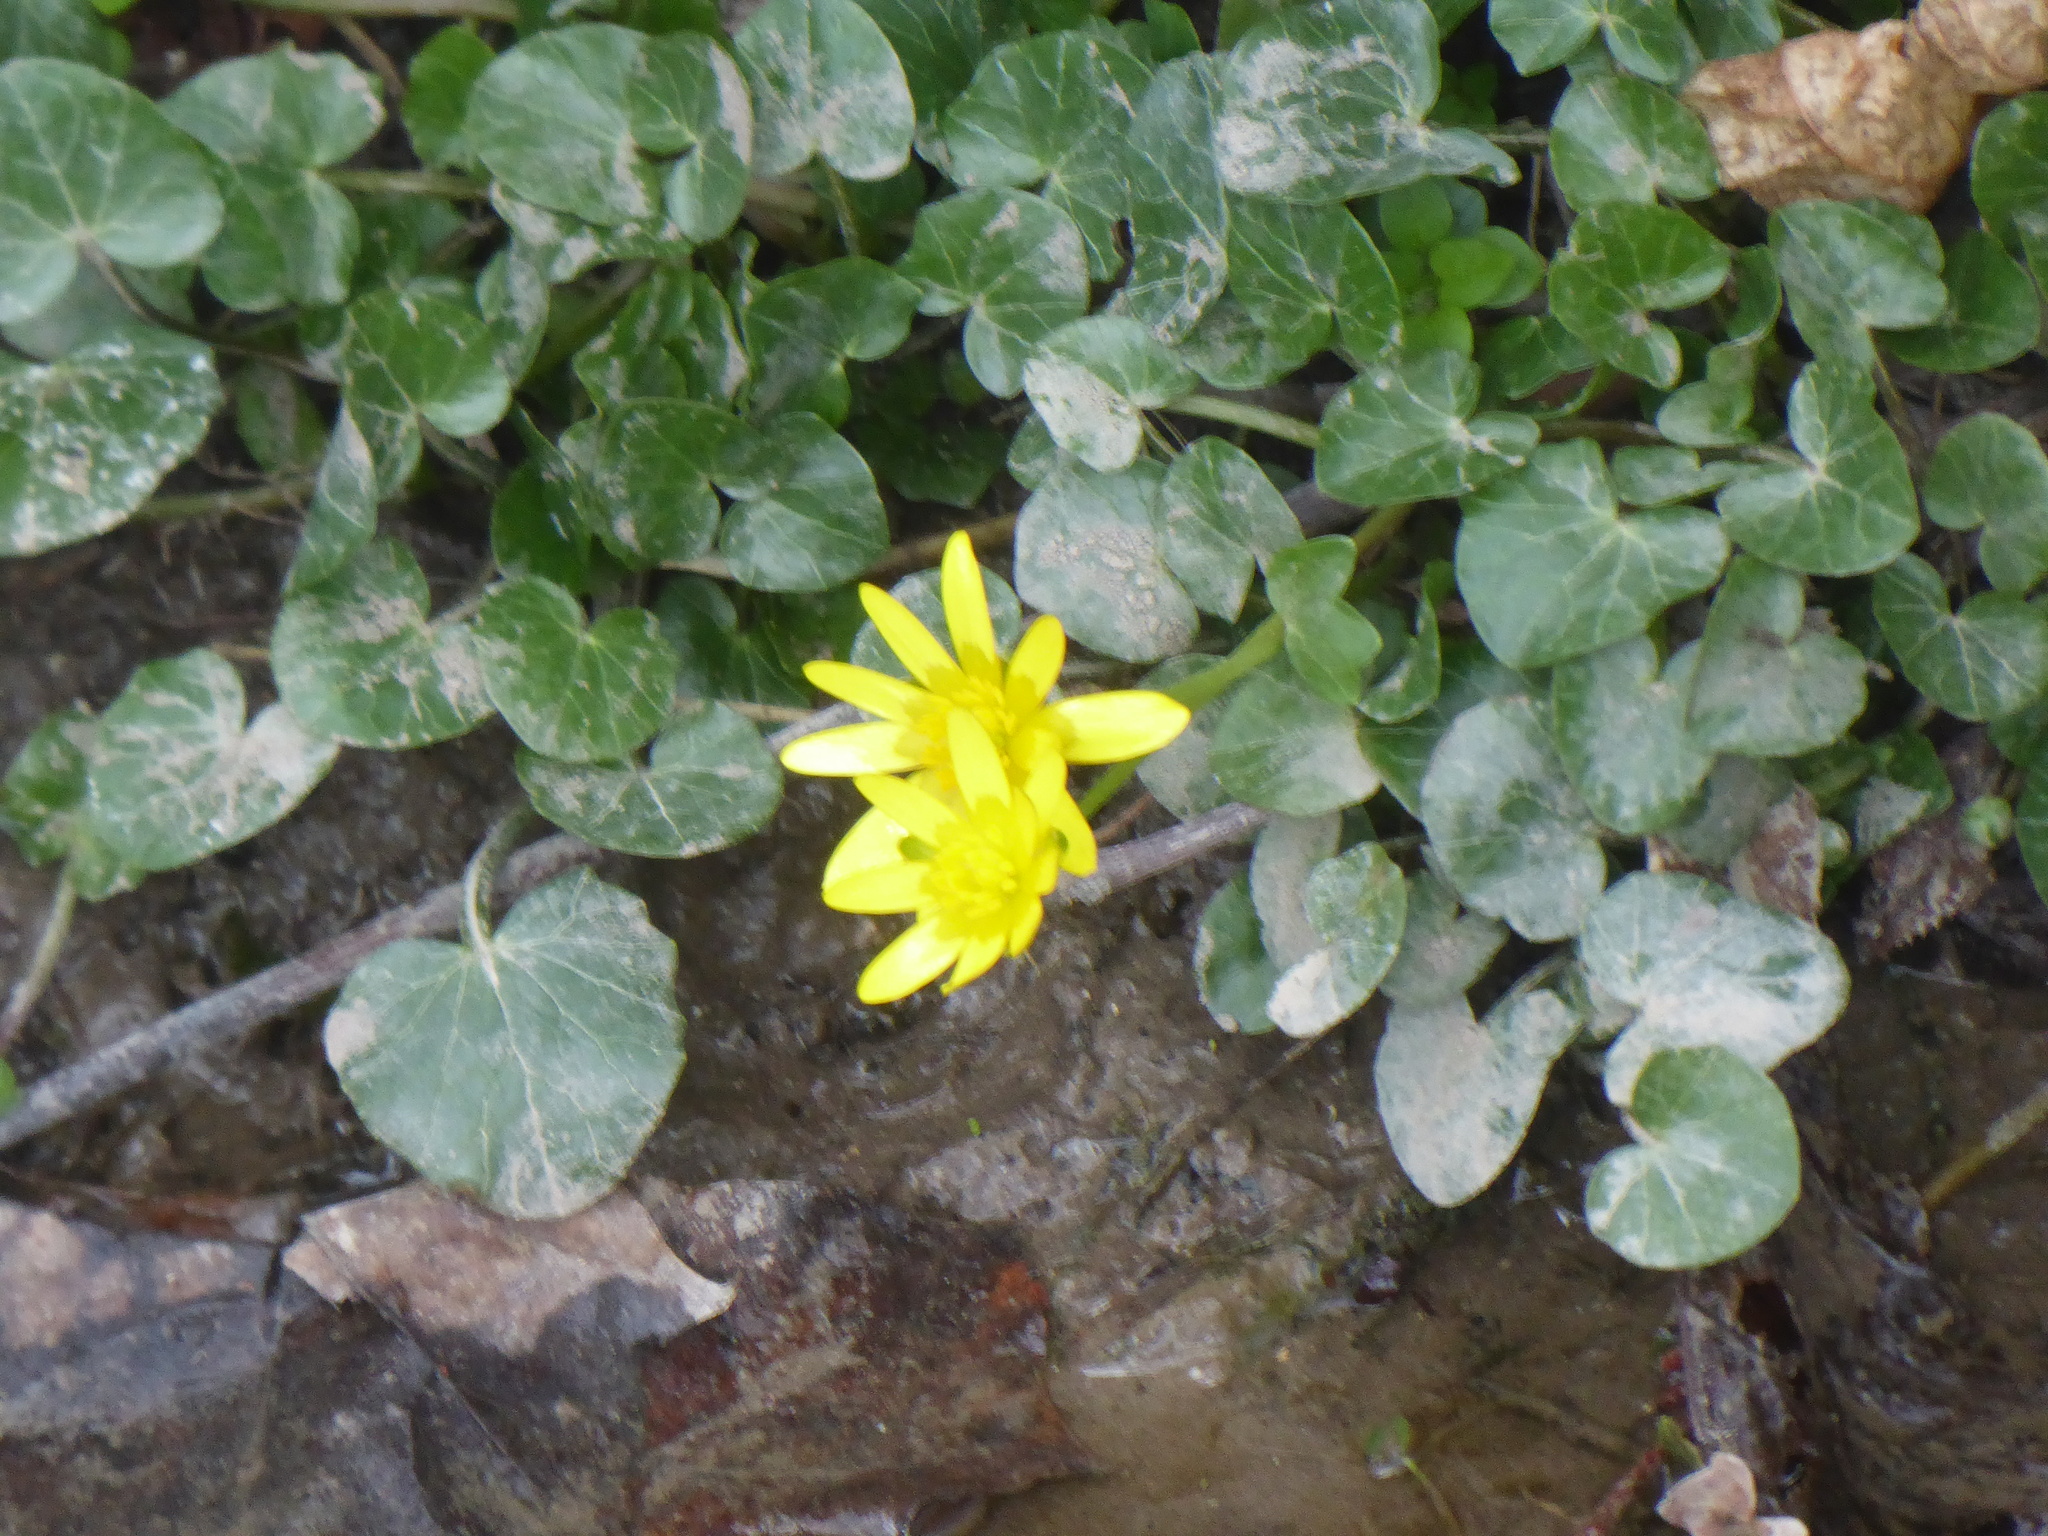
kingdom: Plantae
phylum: Tracheophyta
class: Magnoliopsida
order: Ranunculales
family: Ranunculaceae
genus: Ficaria
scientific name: Ficaria verna
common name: Lesser celandine
